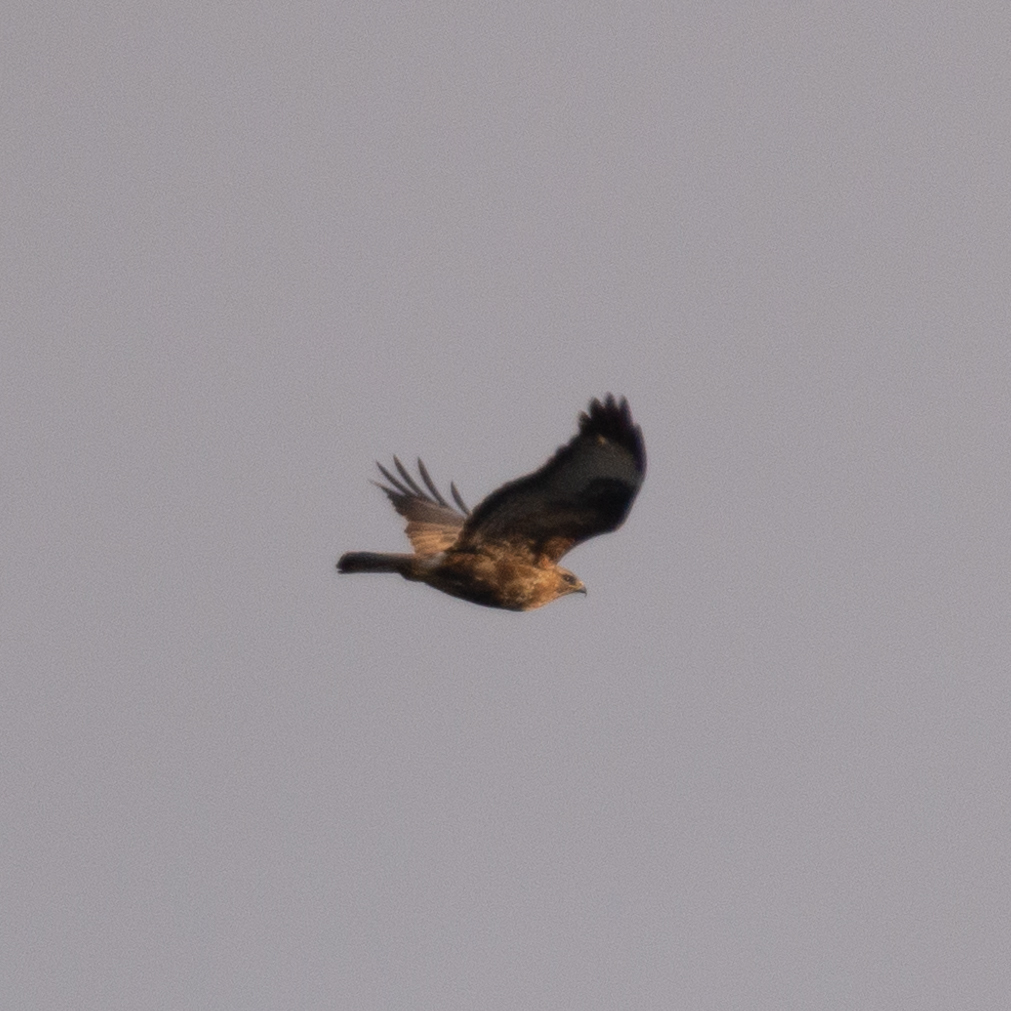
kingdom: Animalia
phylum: Chordata
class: Aves
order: Accipitriformes
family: Accipitridae
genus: Buteo
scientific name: Buteo buteo
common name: Common buzzard
